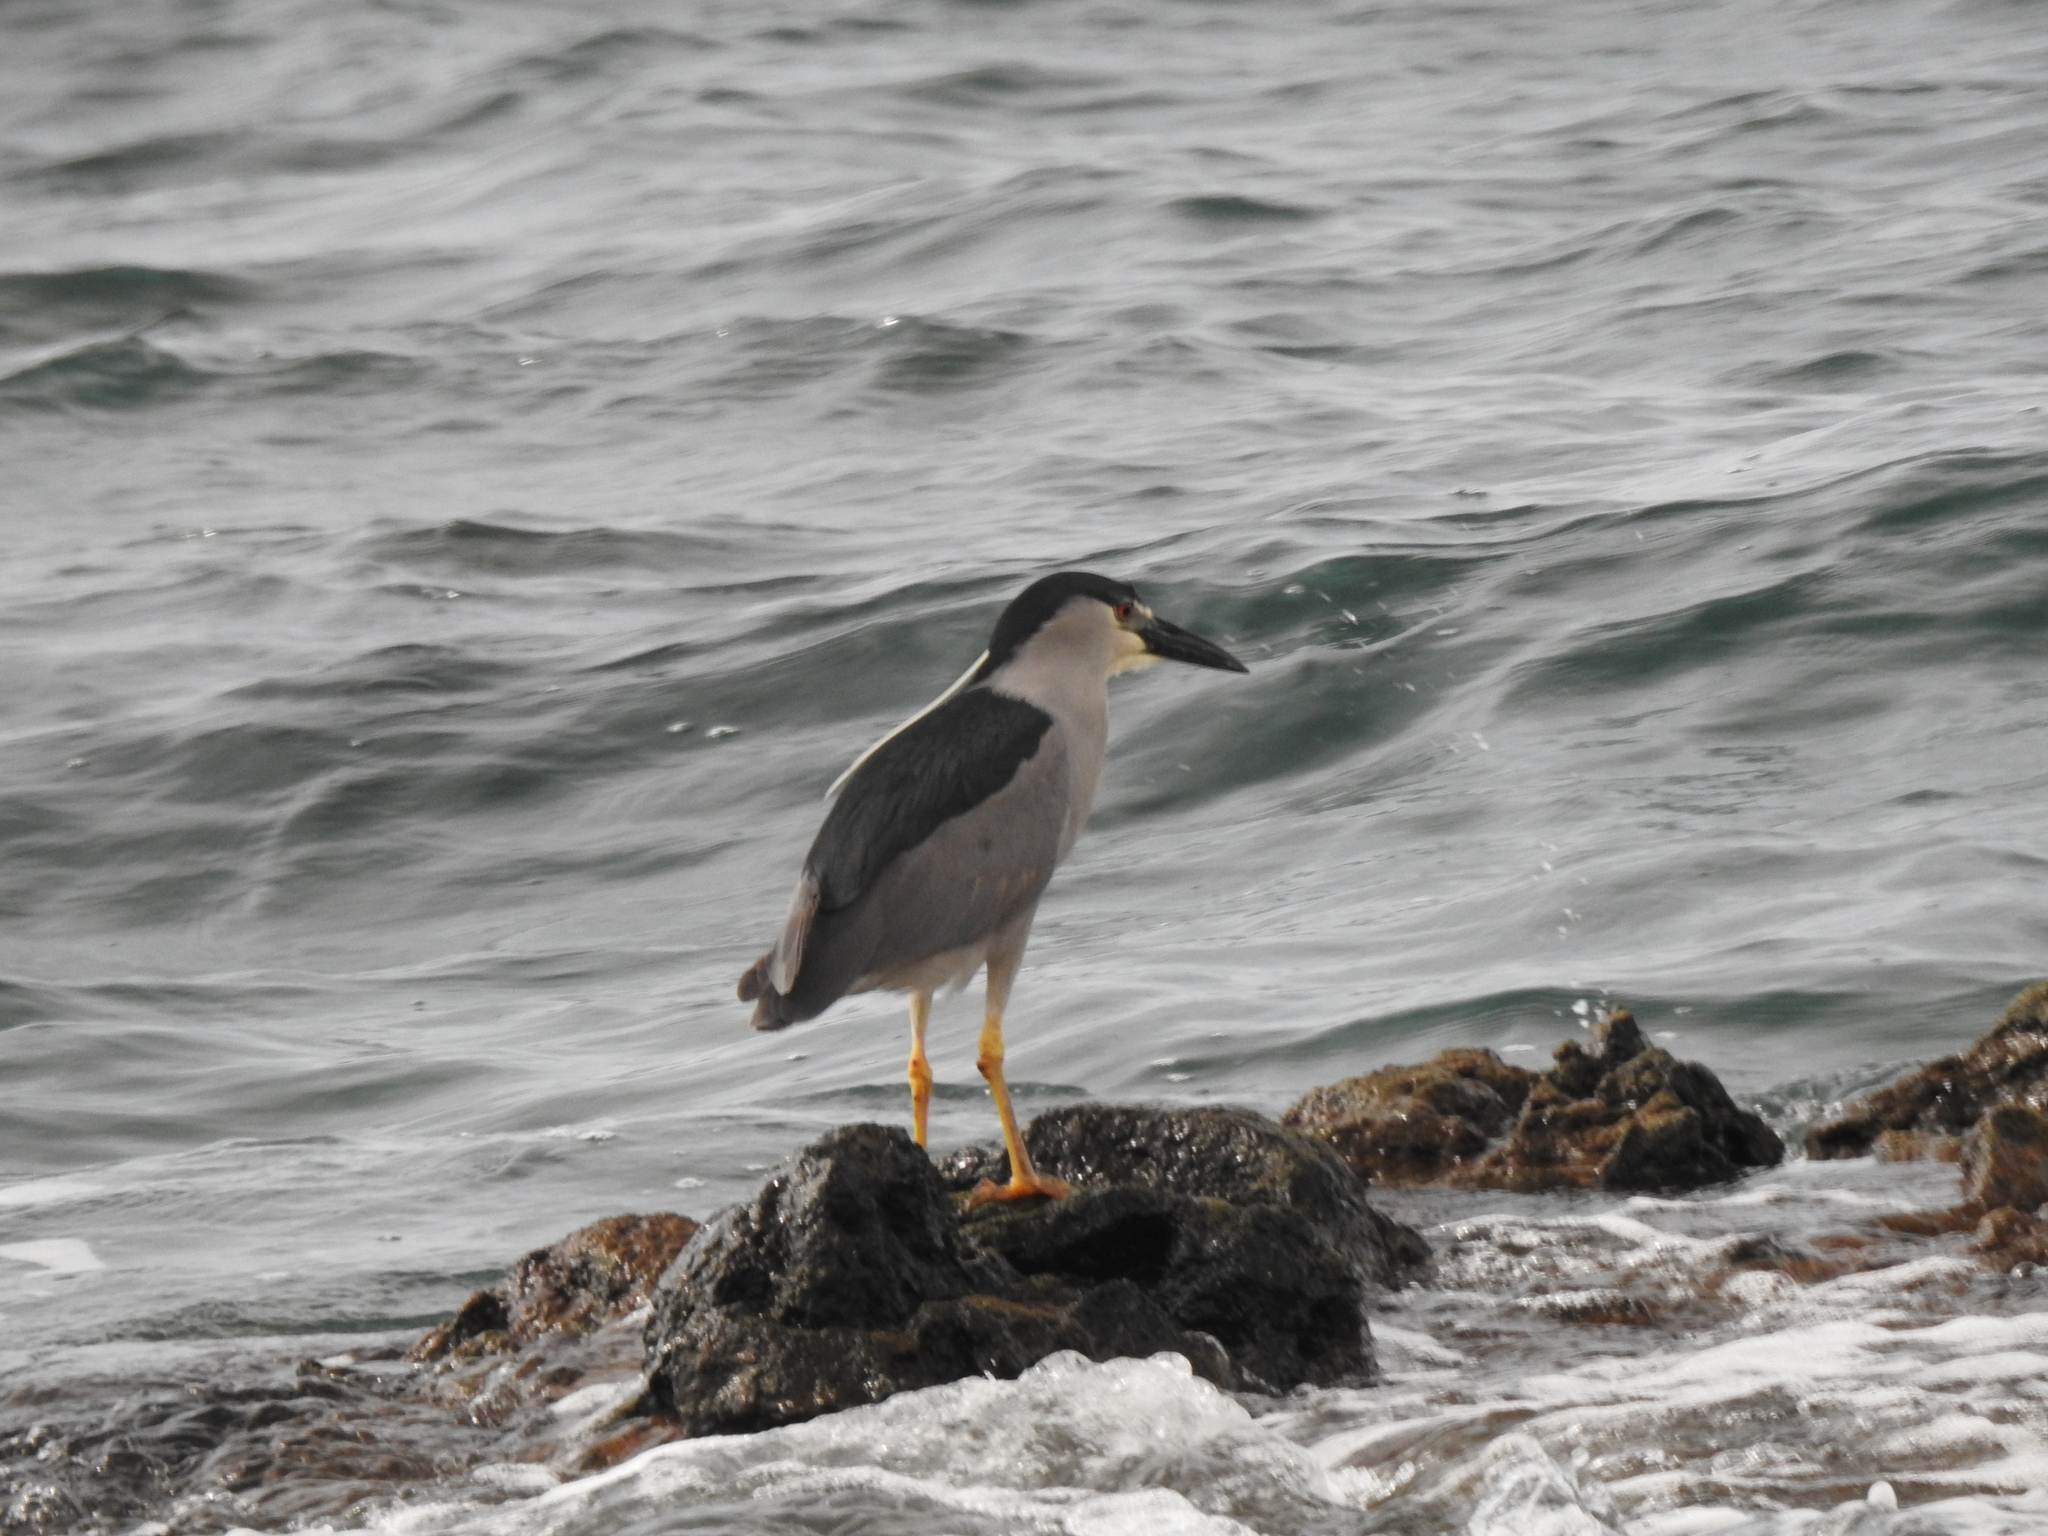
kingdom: Animalia
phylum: Chordata
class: Aves
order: Pelecaniformes
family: Ardeidae
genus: Nycticorax
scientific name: Nycticorax nycticorax
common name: Black-crowned night heron
